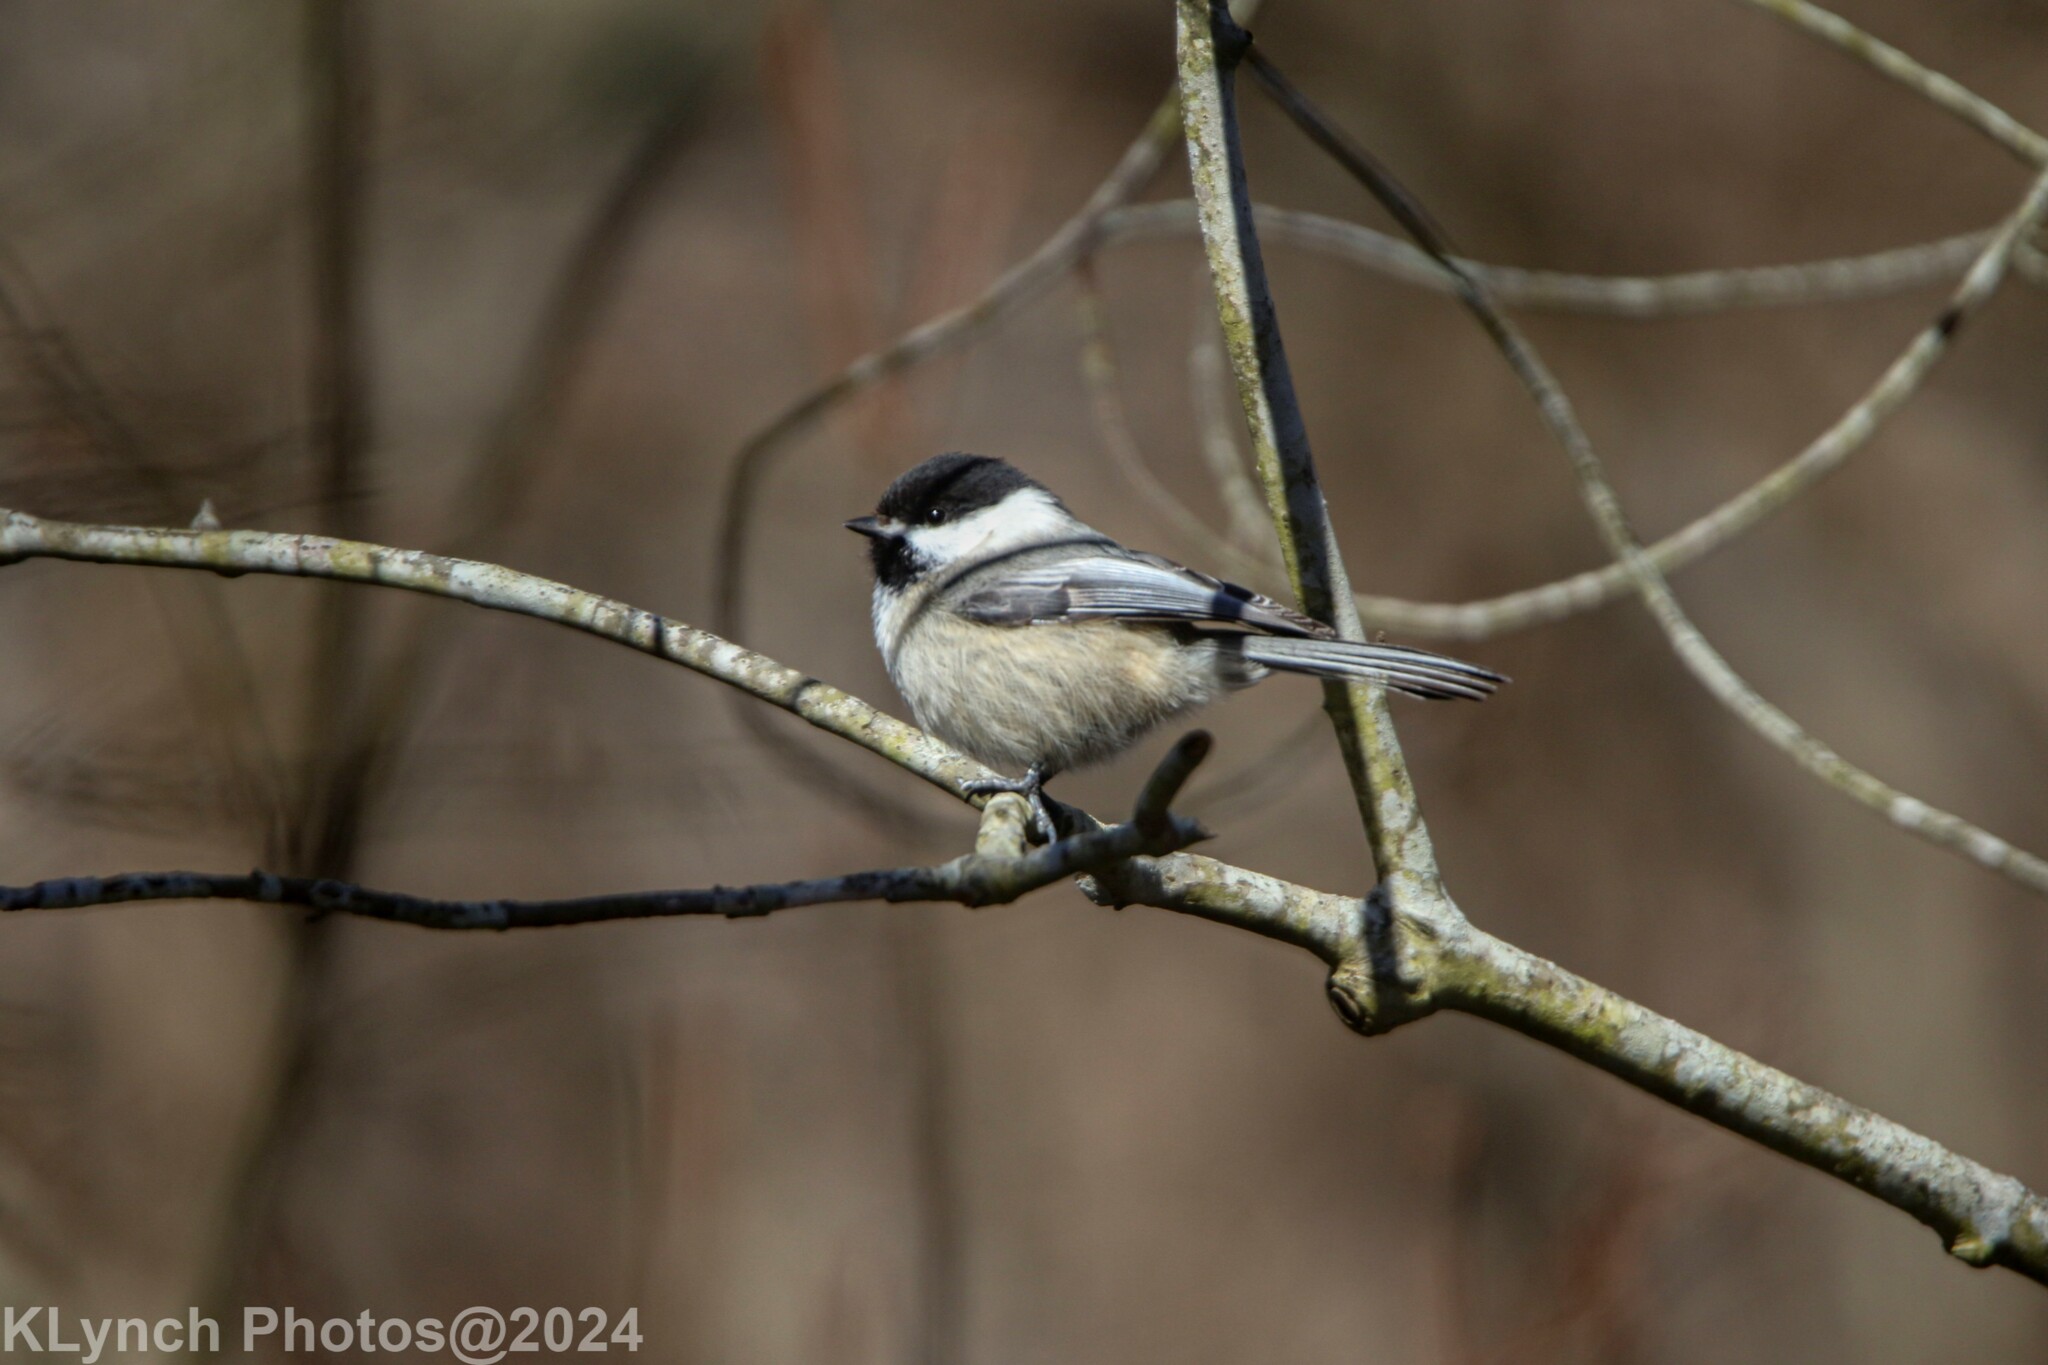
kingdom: Animalia
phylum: Chordata
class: Aves
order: Passeriformes
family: Paridae
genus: Poecile
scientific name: Poecile atricapillus
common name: Black-capped chickadee
